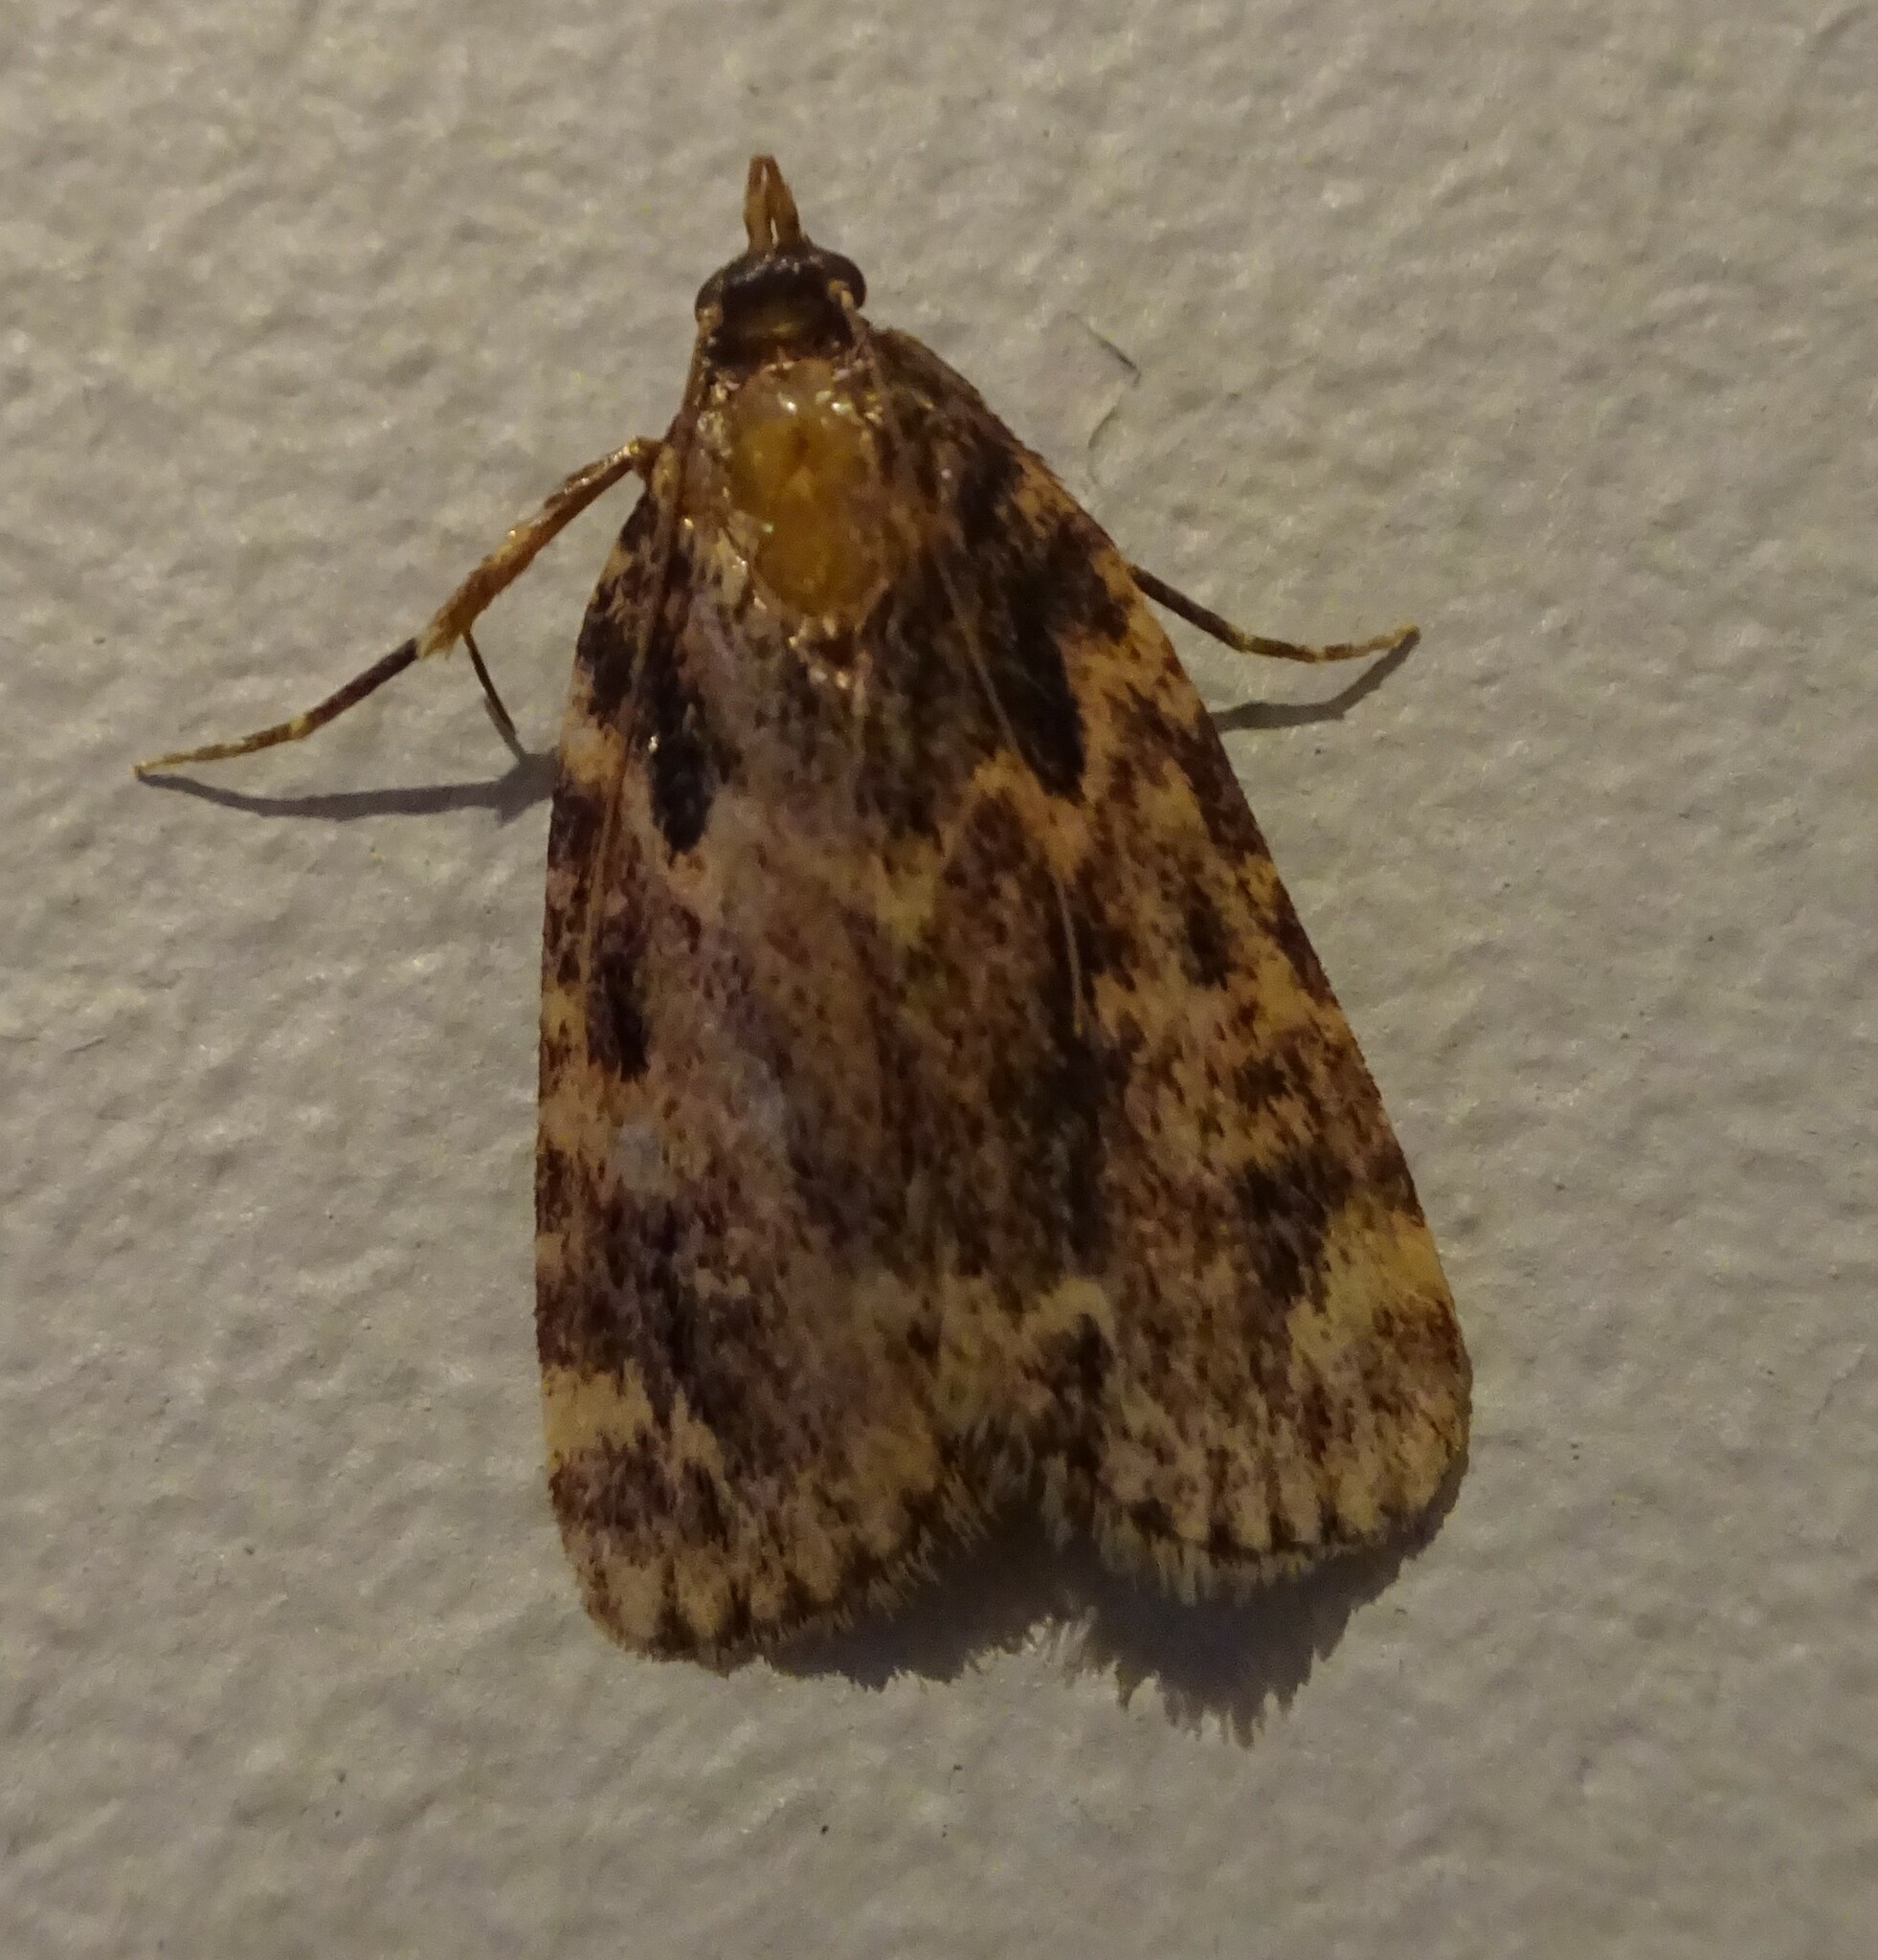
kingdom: Animalia
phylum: Arthropoda
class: Insecta
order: Lepidoptera
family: Pyralidae
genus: Aglossa
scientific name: Aglossa caprealis
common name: Small tabby
